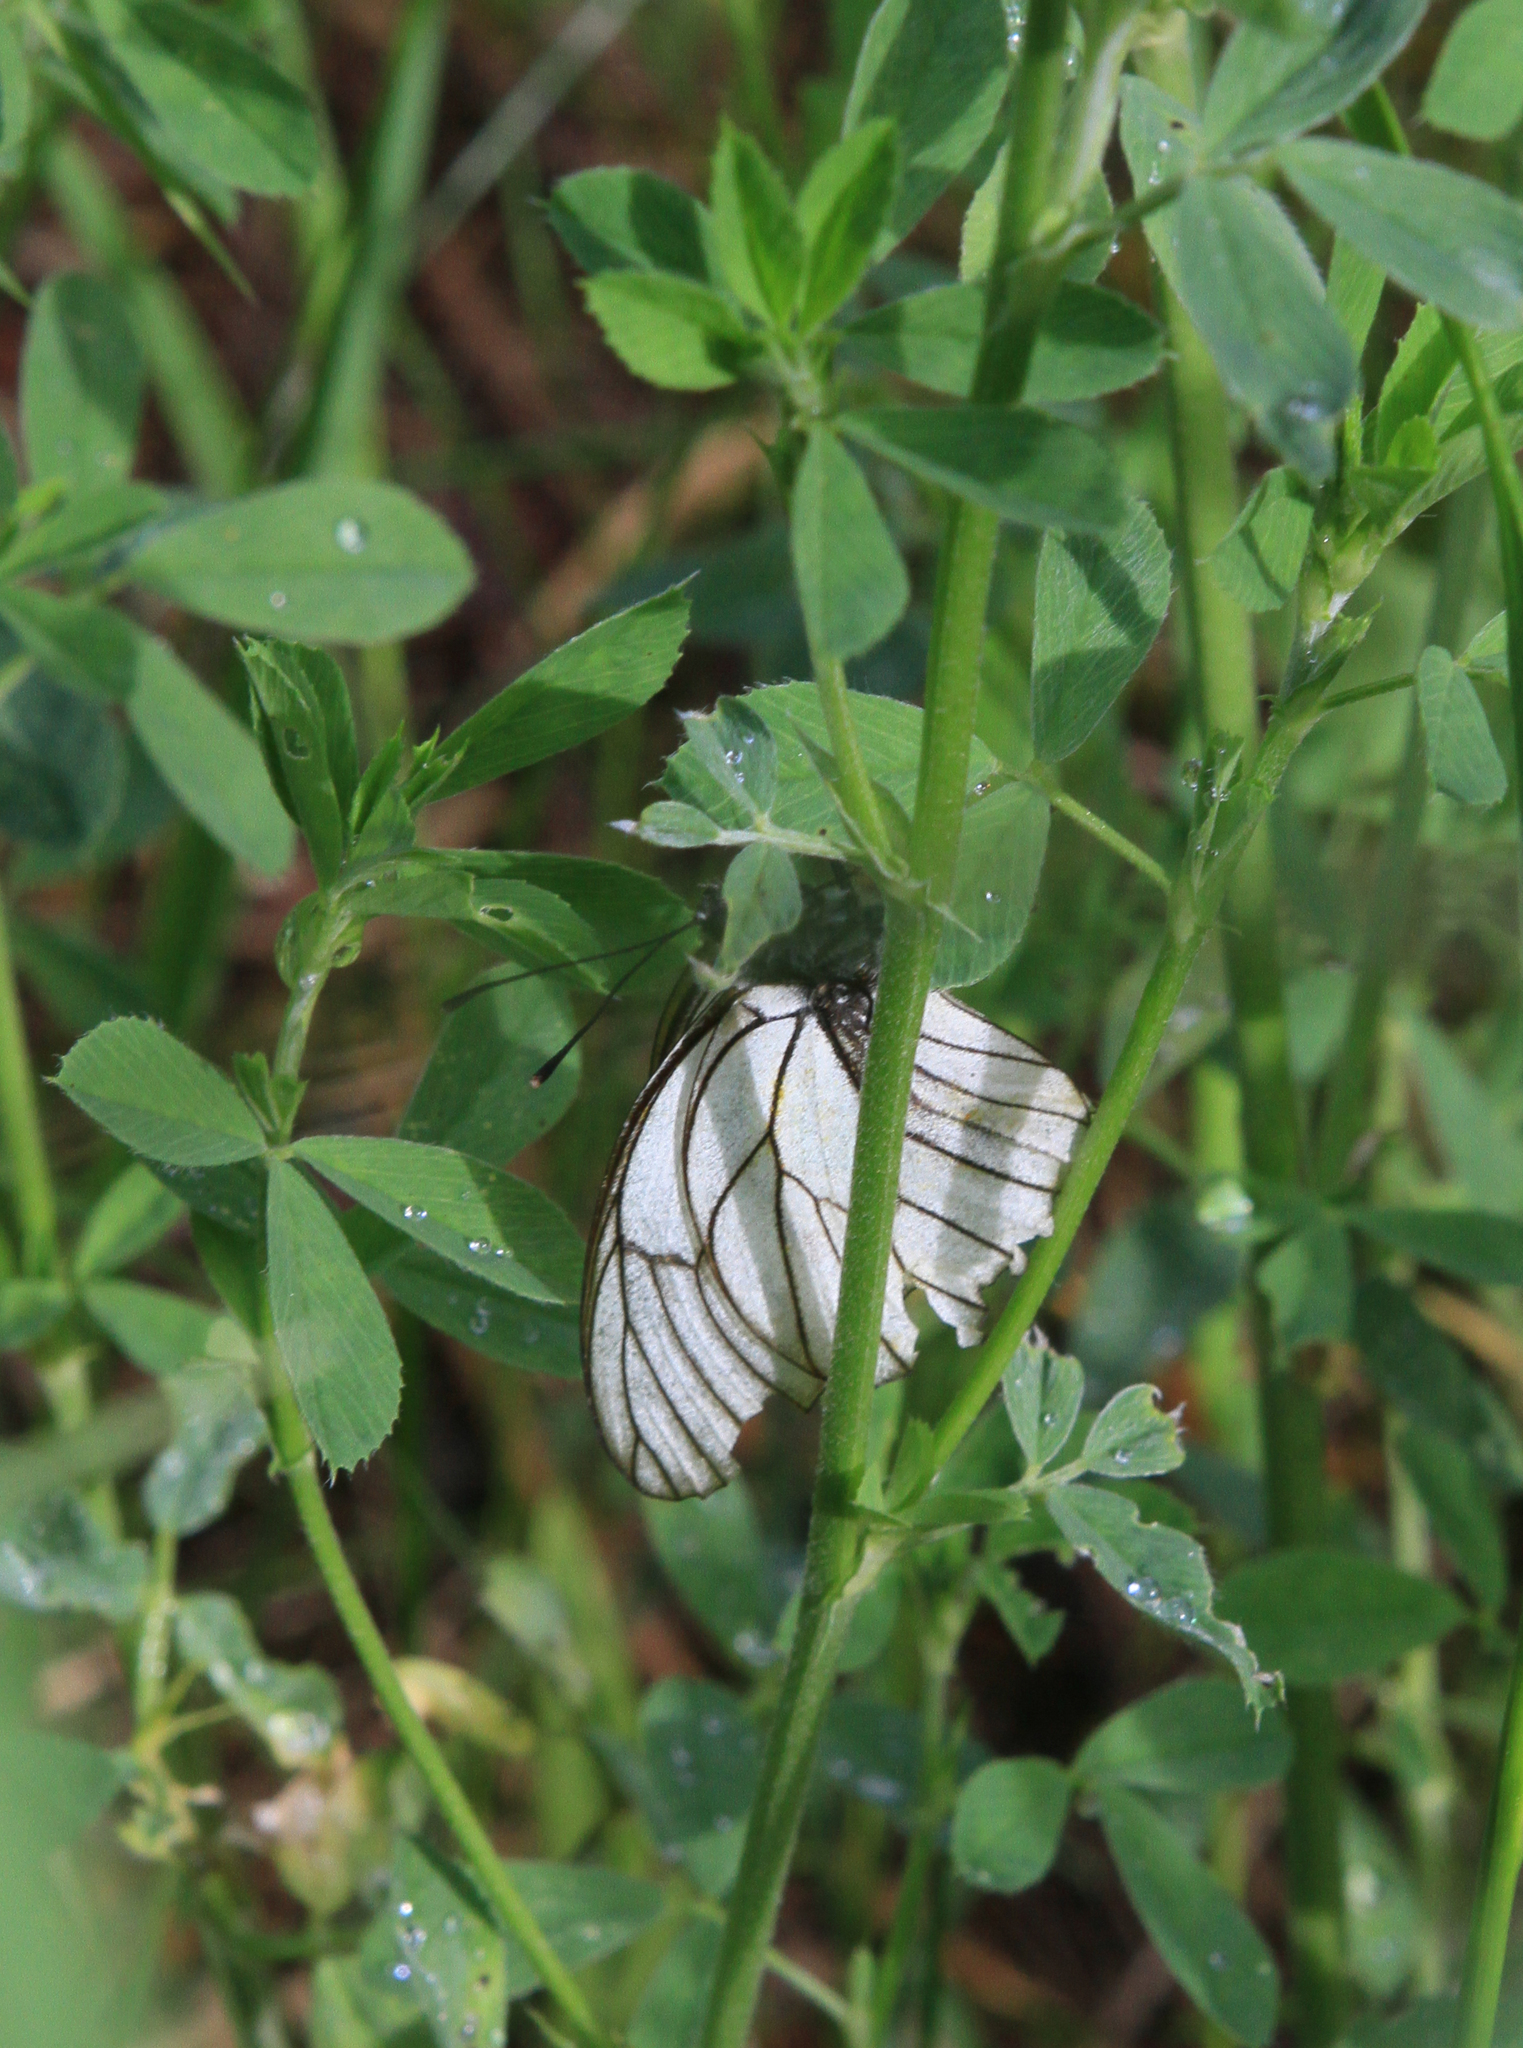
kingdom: Animalia
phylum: Arthropoda
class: Insecta
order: Lepidoptera
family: Pieridae
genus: Aporia
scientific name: Aporia crataegi
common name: Black-veined white
